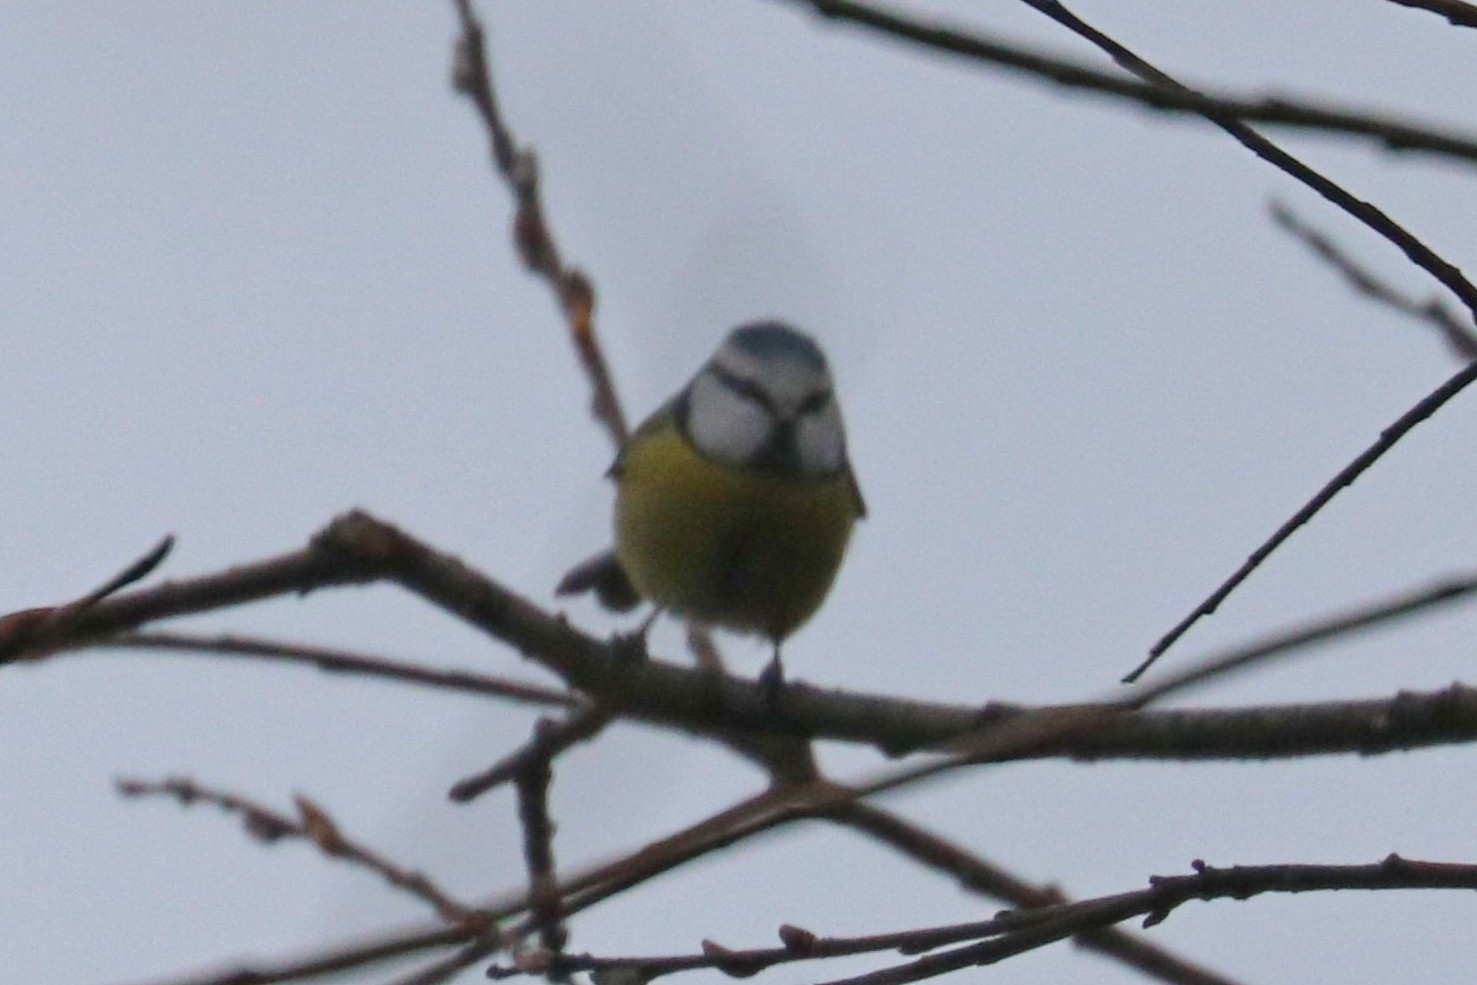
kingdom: Animalia
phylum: Chordata
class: Aves
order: Passeriformes
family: Paridae
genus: Cyanistes
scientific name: Cyanistes caeruleus
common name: Eurasian blue tit
